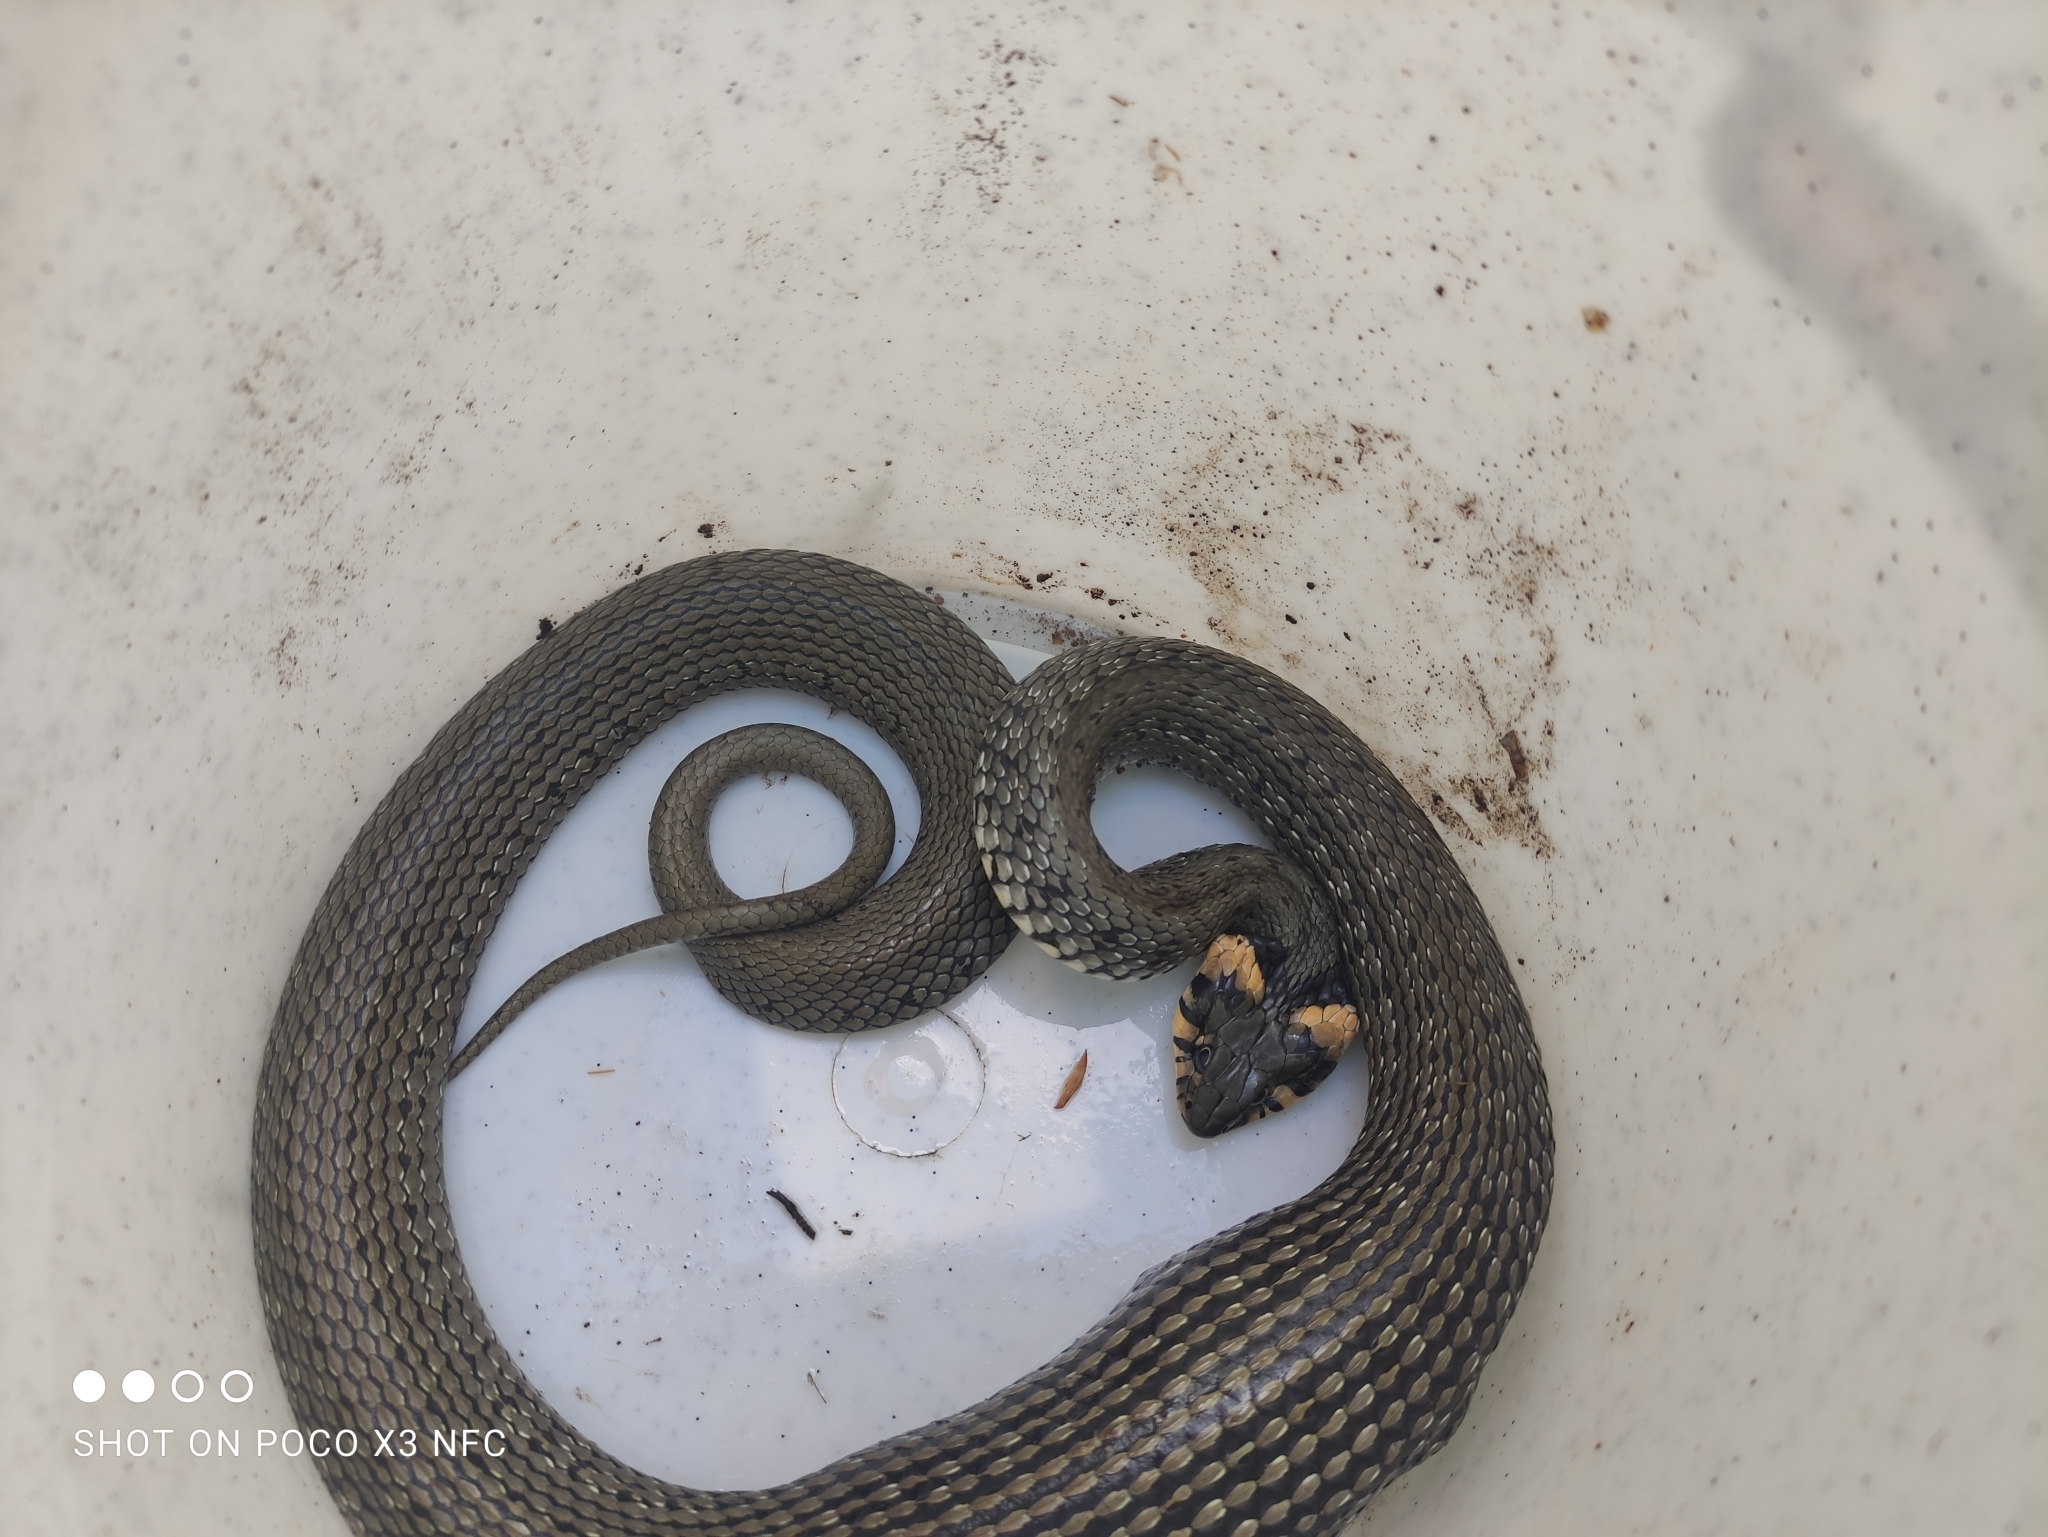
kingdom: Animalia
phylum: Chordata
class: Squamata
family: Colubridae
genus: Natrix
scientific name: Natrix natrix
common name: Grass snake
